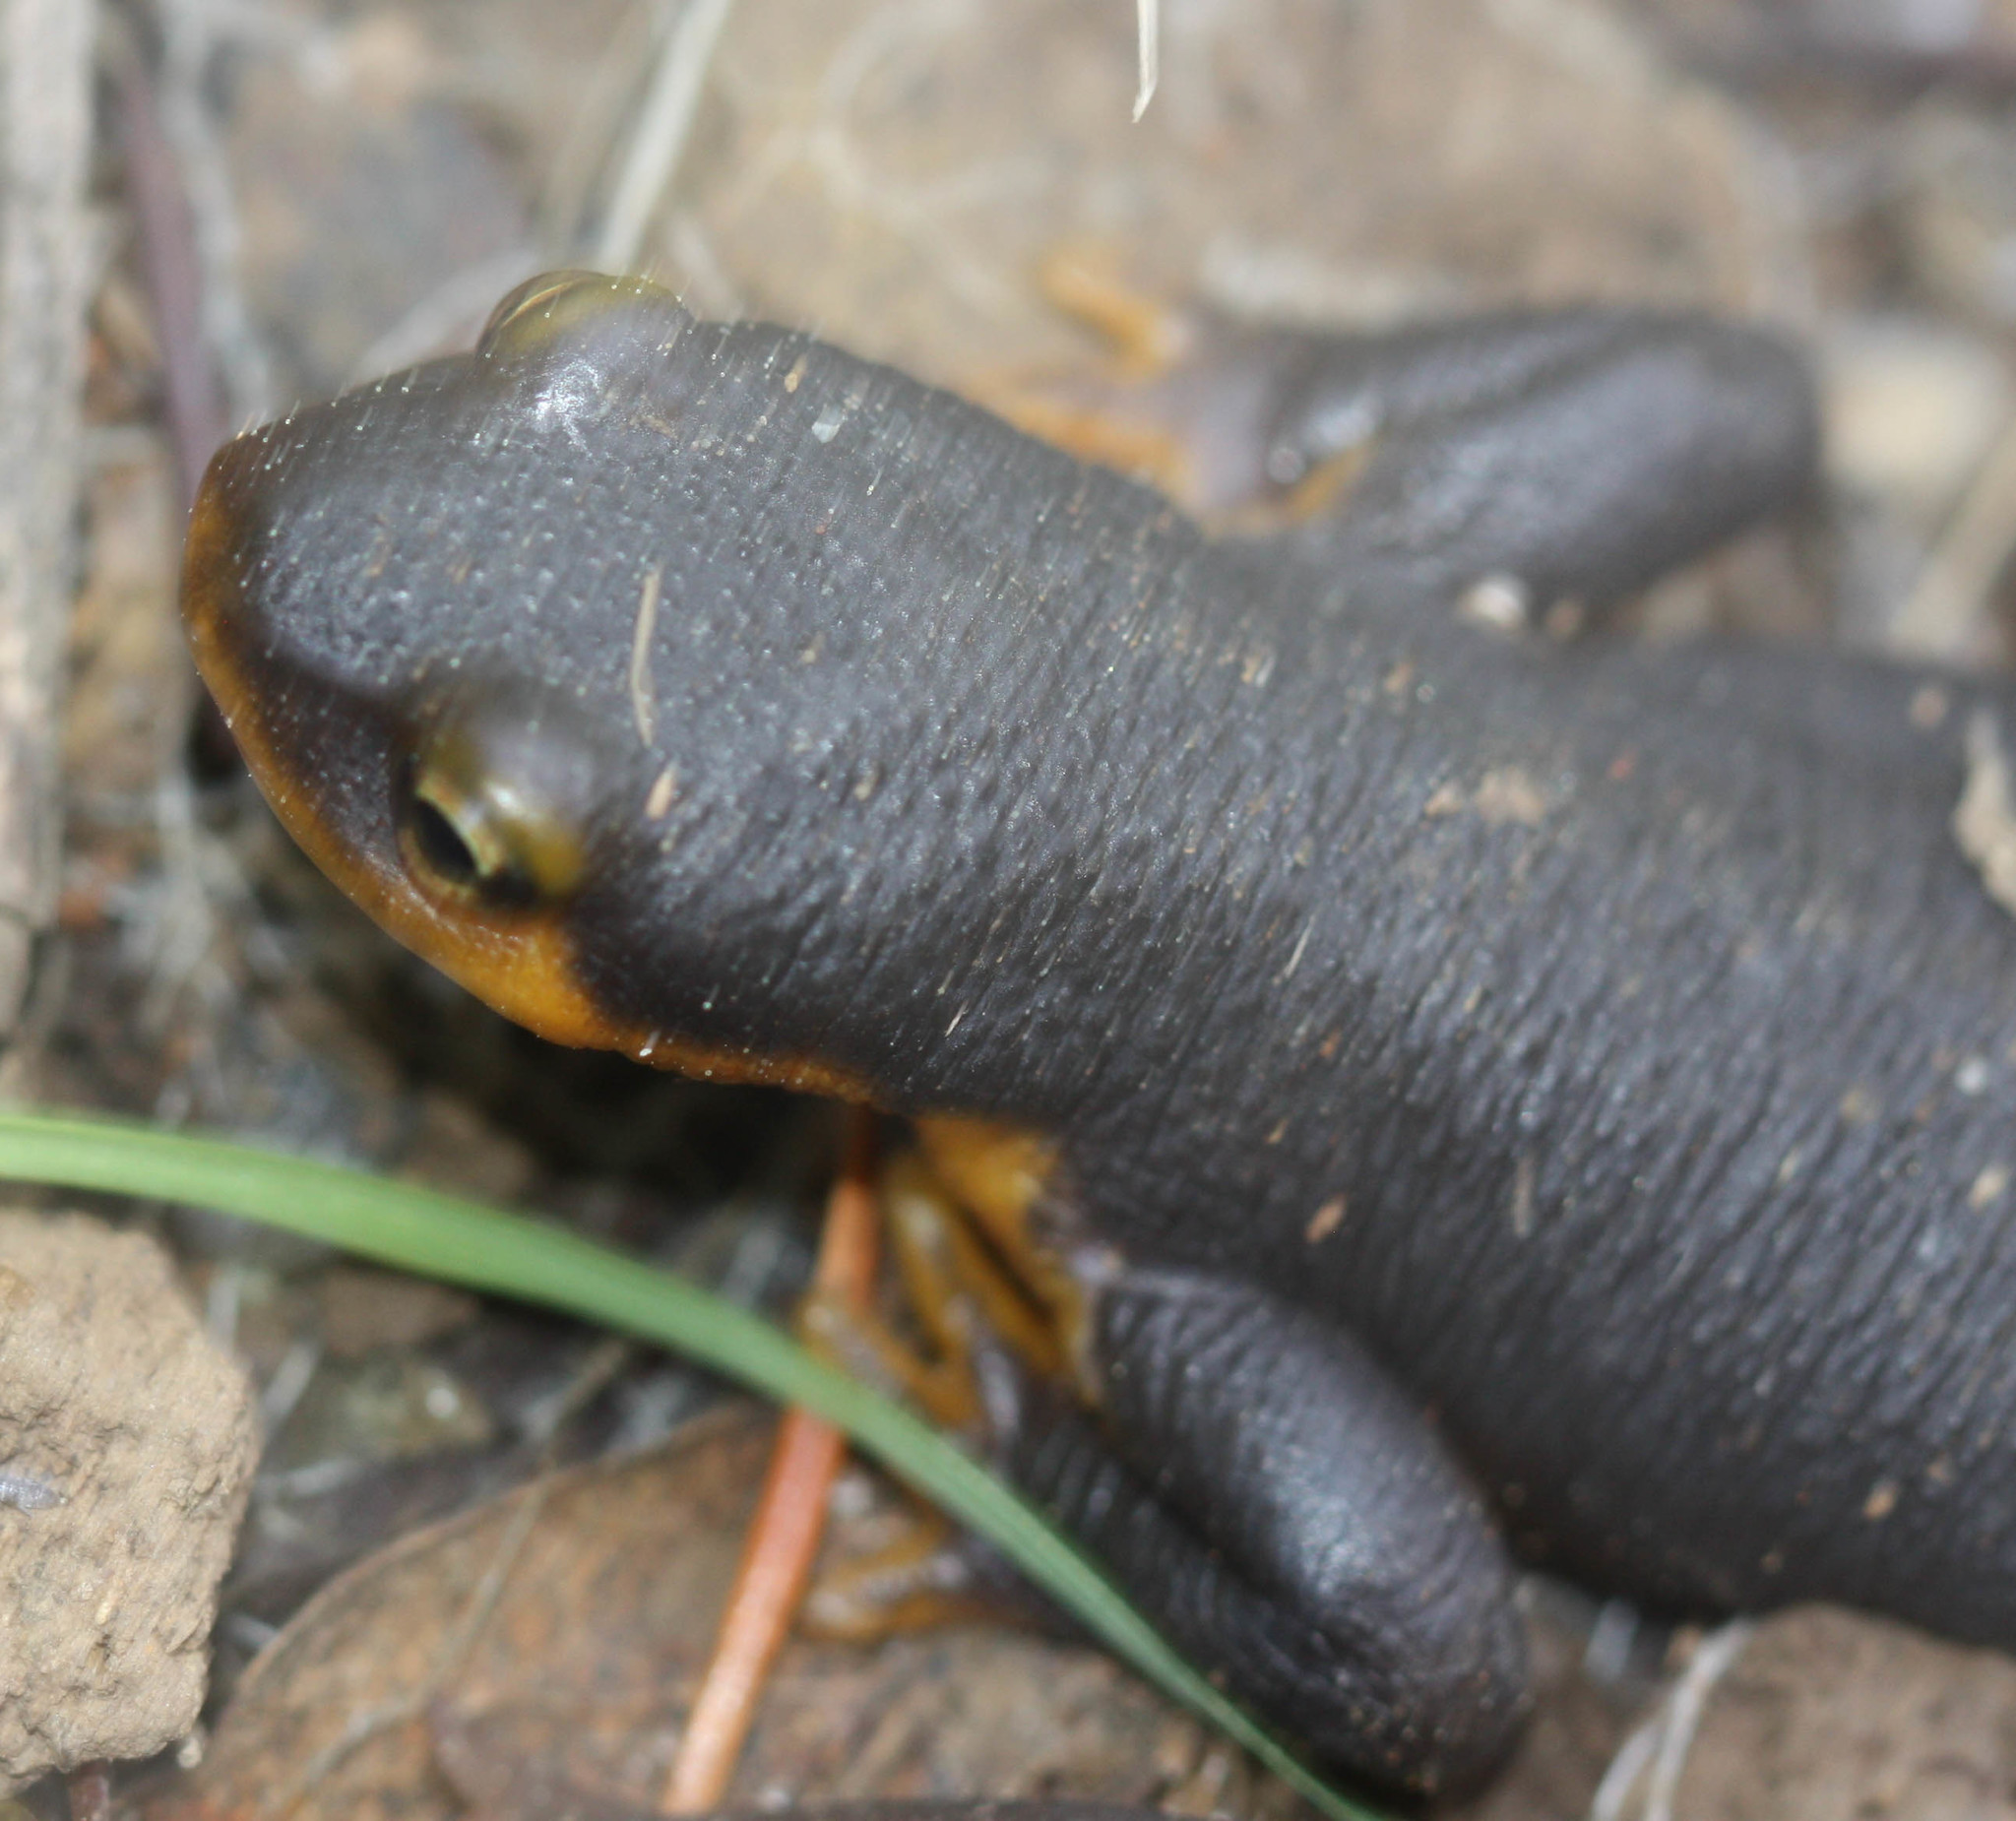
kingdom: Animalia
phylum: Chordata
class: Amphibia
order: Caudata
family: Salamandridae
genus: Taricha
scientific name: Taricha torosa
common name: California newt
